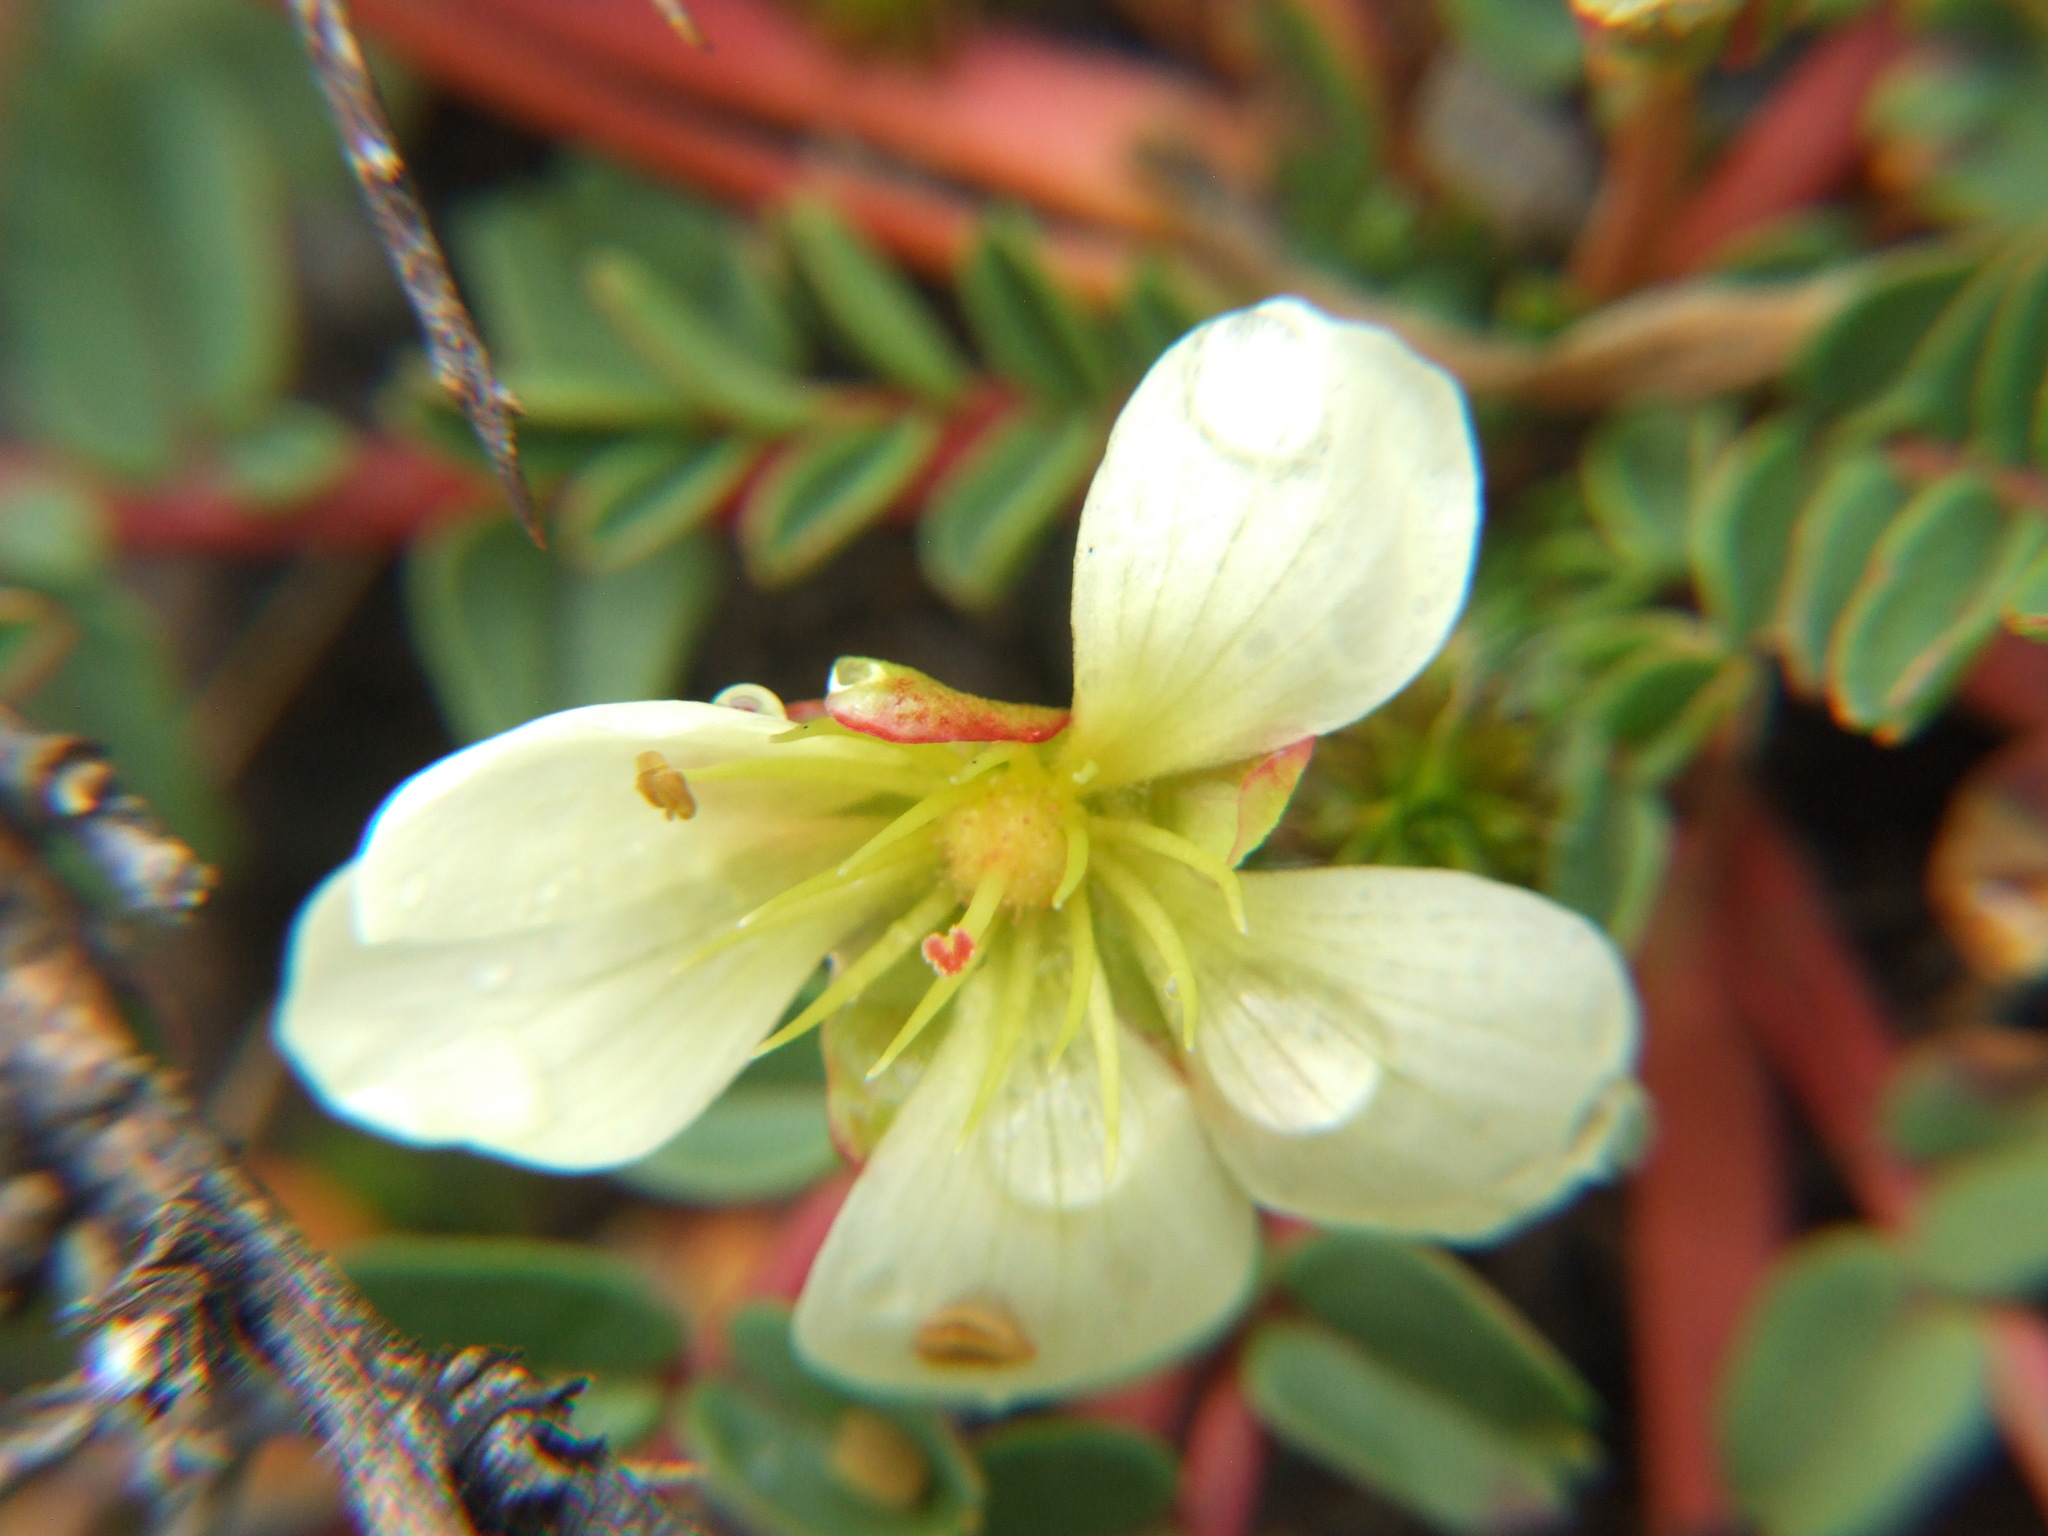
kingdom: Plantae
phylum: Tracheophyta
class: Magnoliopsida
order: Geraniales
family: Hypseocharitaceae
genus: Hypseocharis
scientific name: Hypseocharis bilobata
